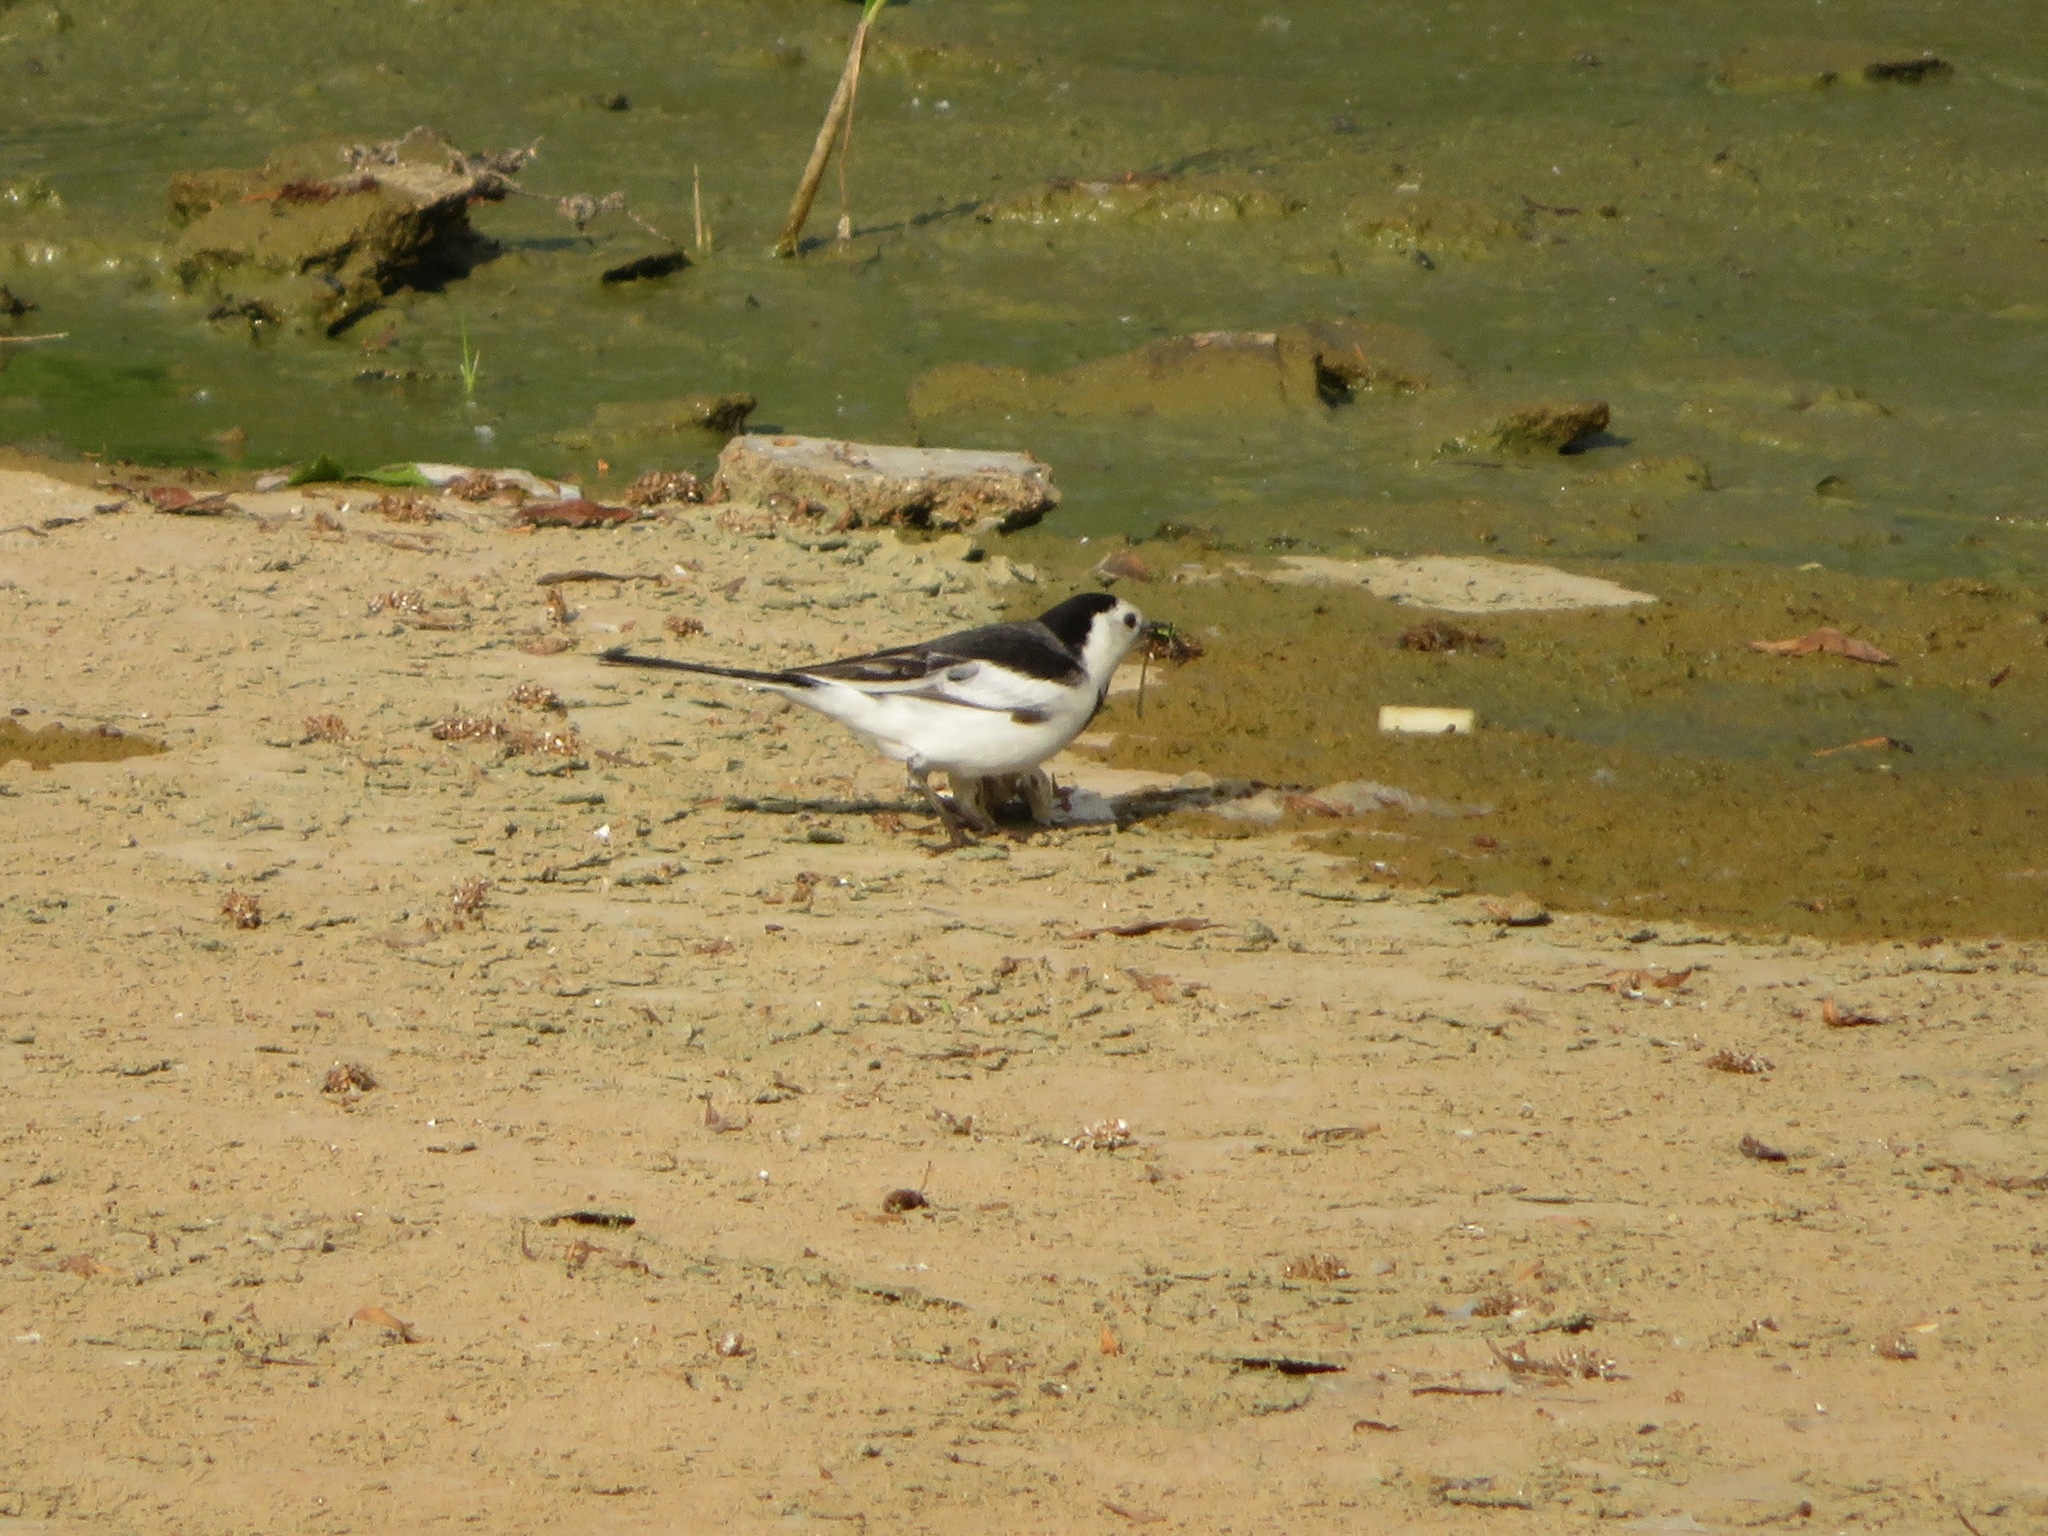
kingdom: Animalia
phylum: Chordata
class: Aves
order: Passeriformes
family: Motacillidae
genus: Motacilla
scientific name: Motacilla alba
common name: White wagtail
